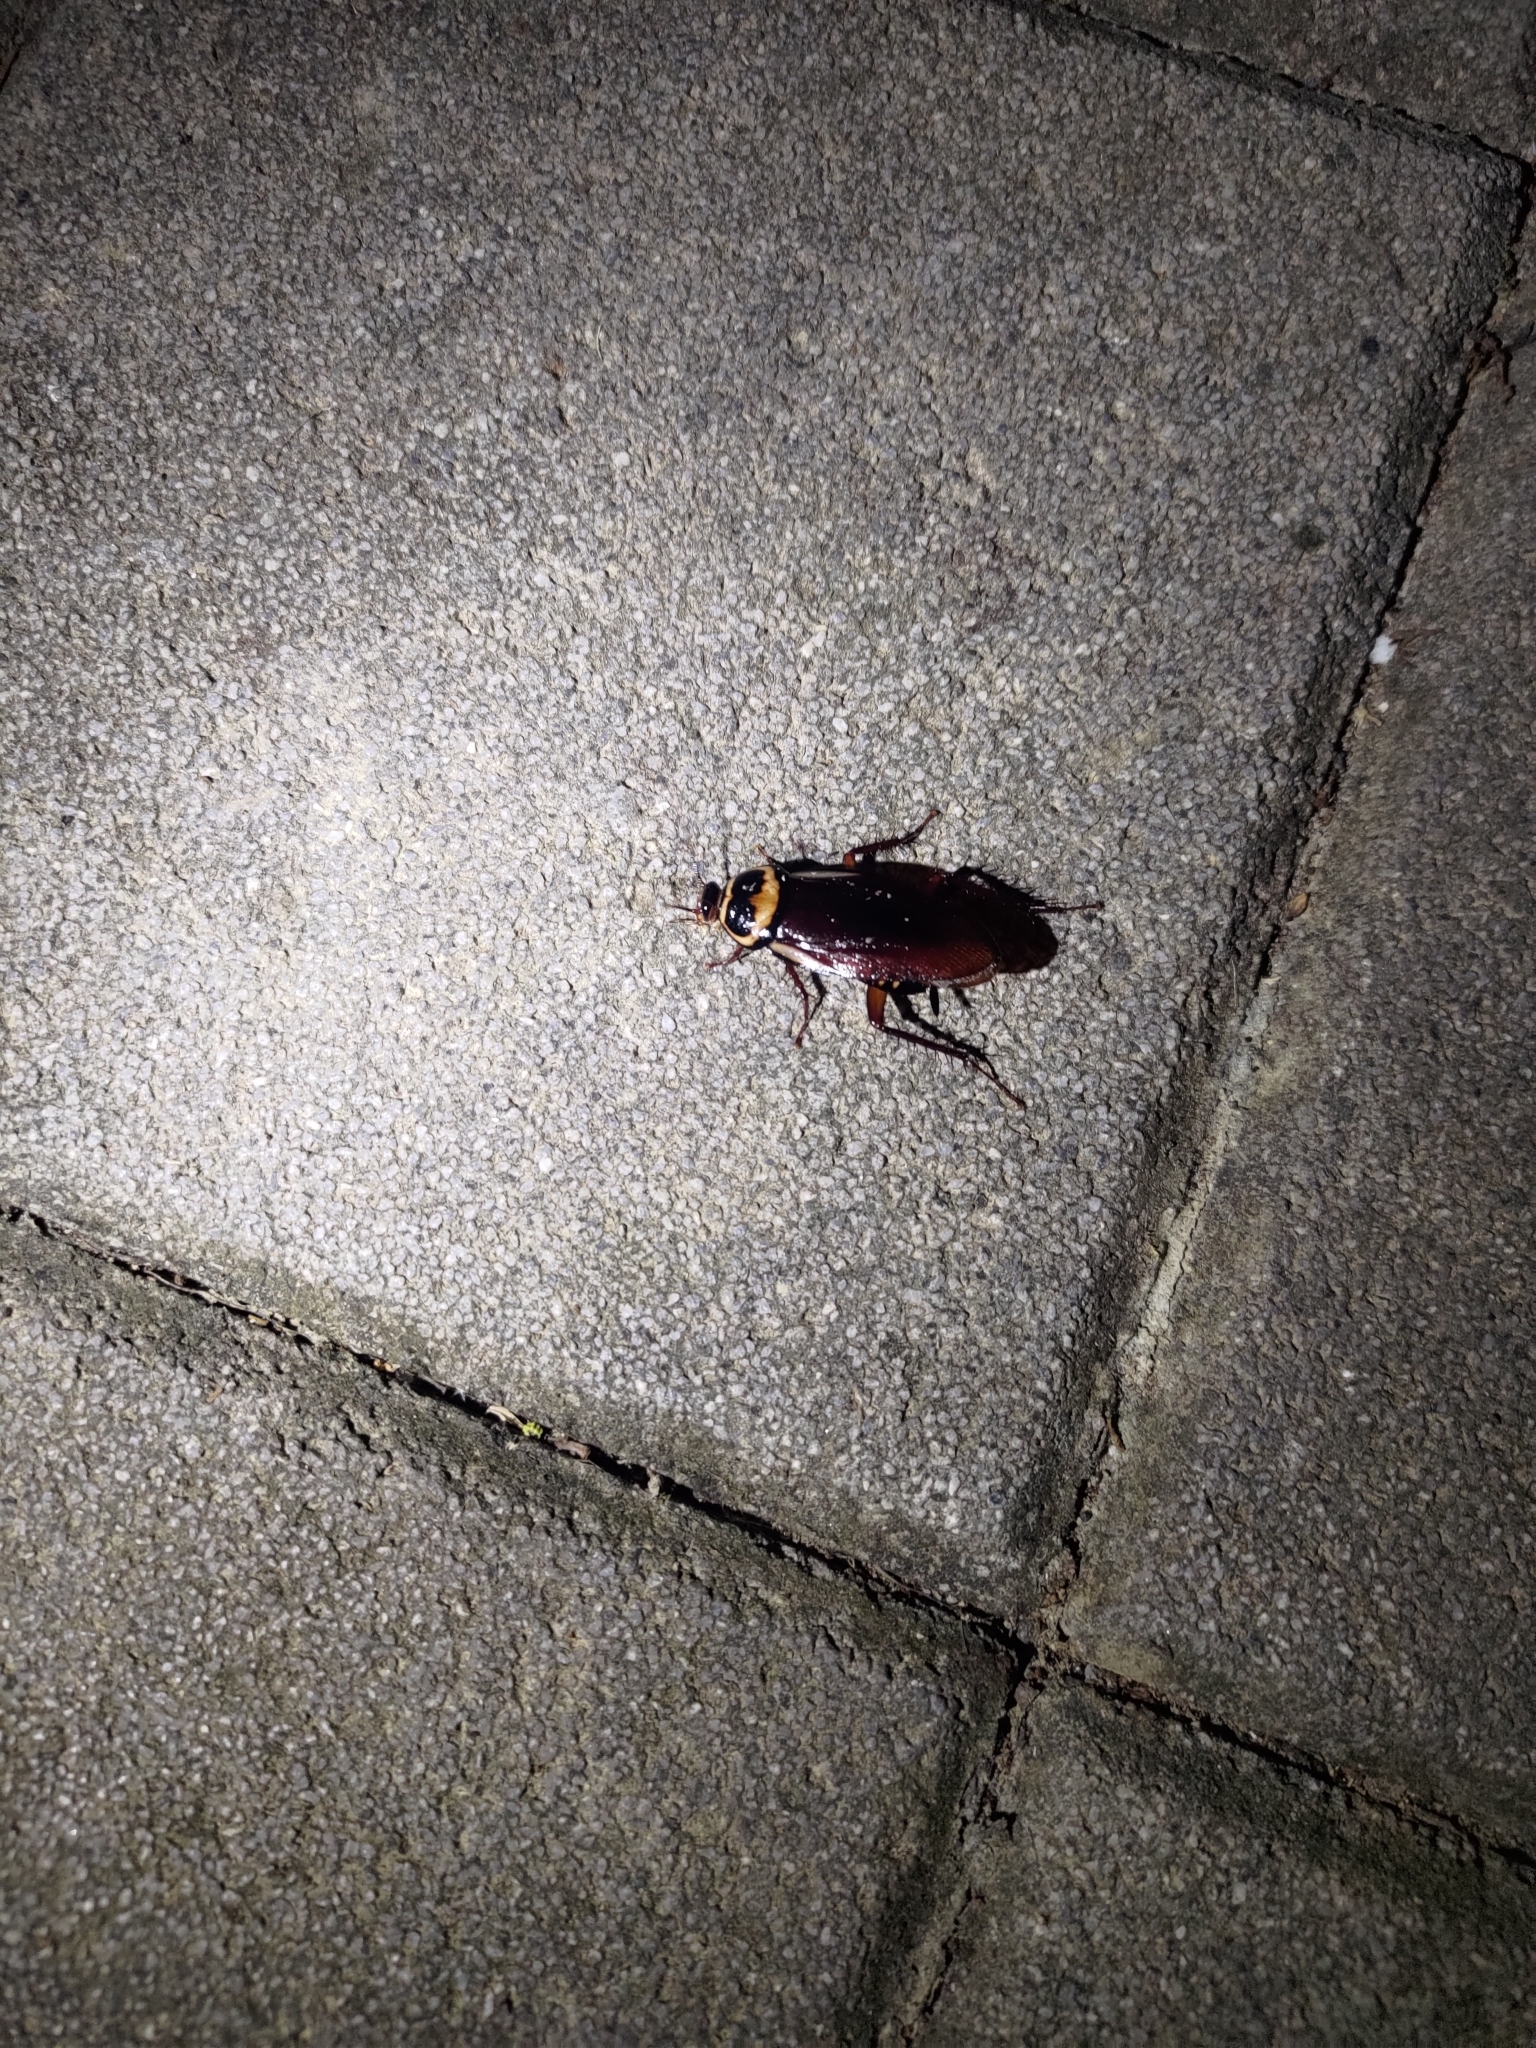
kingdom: Animalia
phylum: Arthropoda
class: Insecta
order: Blattodea
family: Blattidae
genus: Periplaneta
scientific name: Periplaneta australasiae
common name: Australian cockroach
